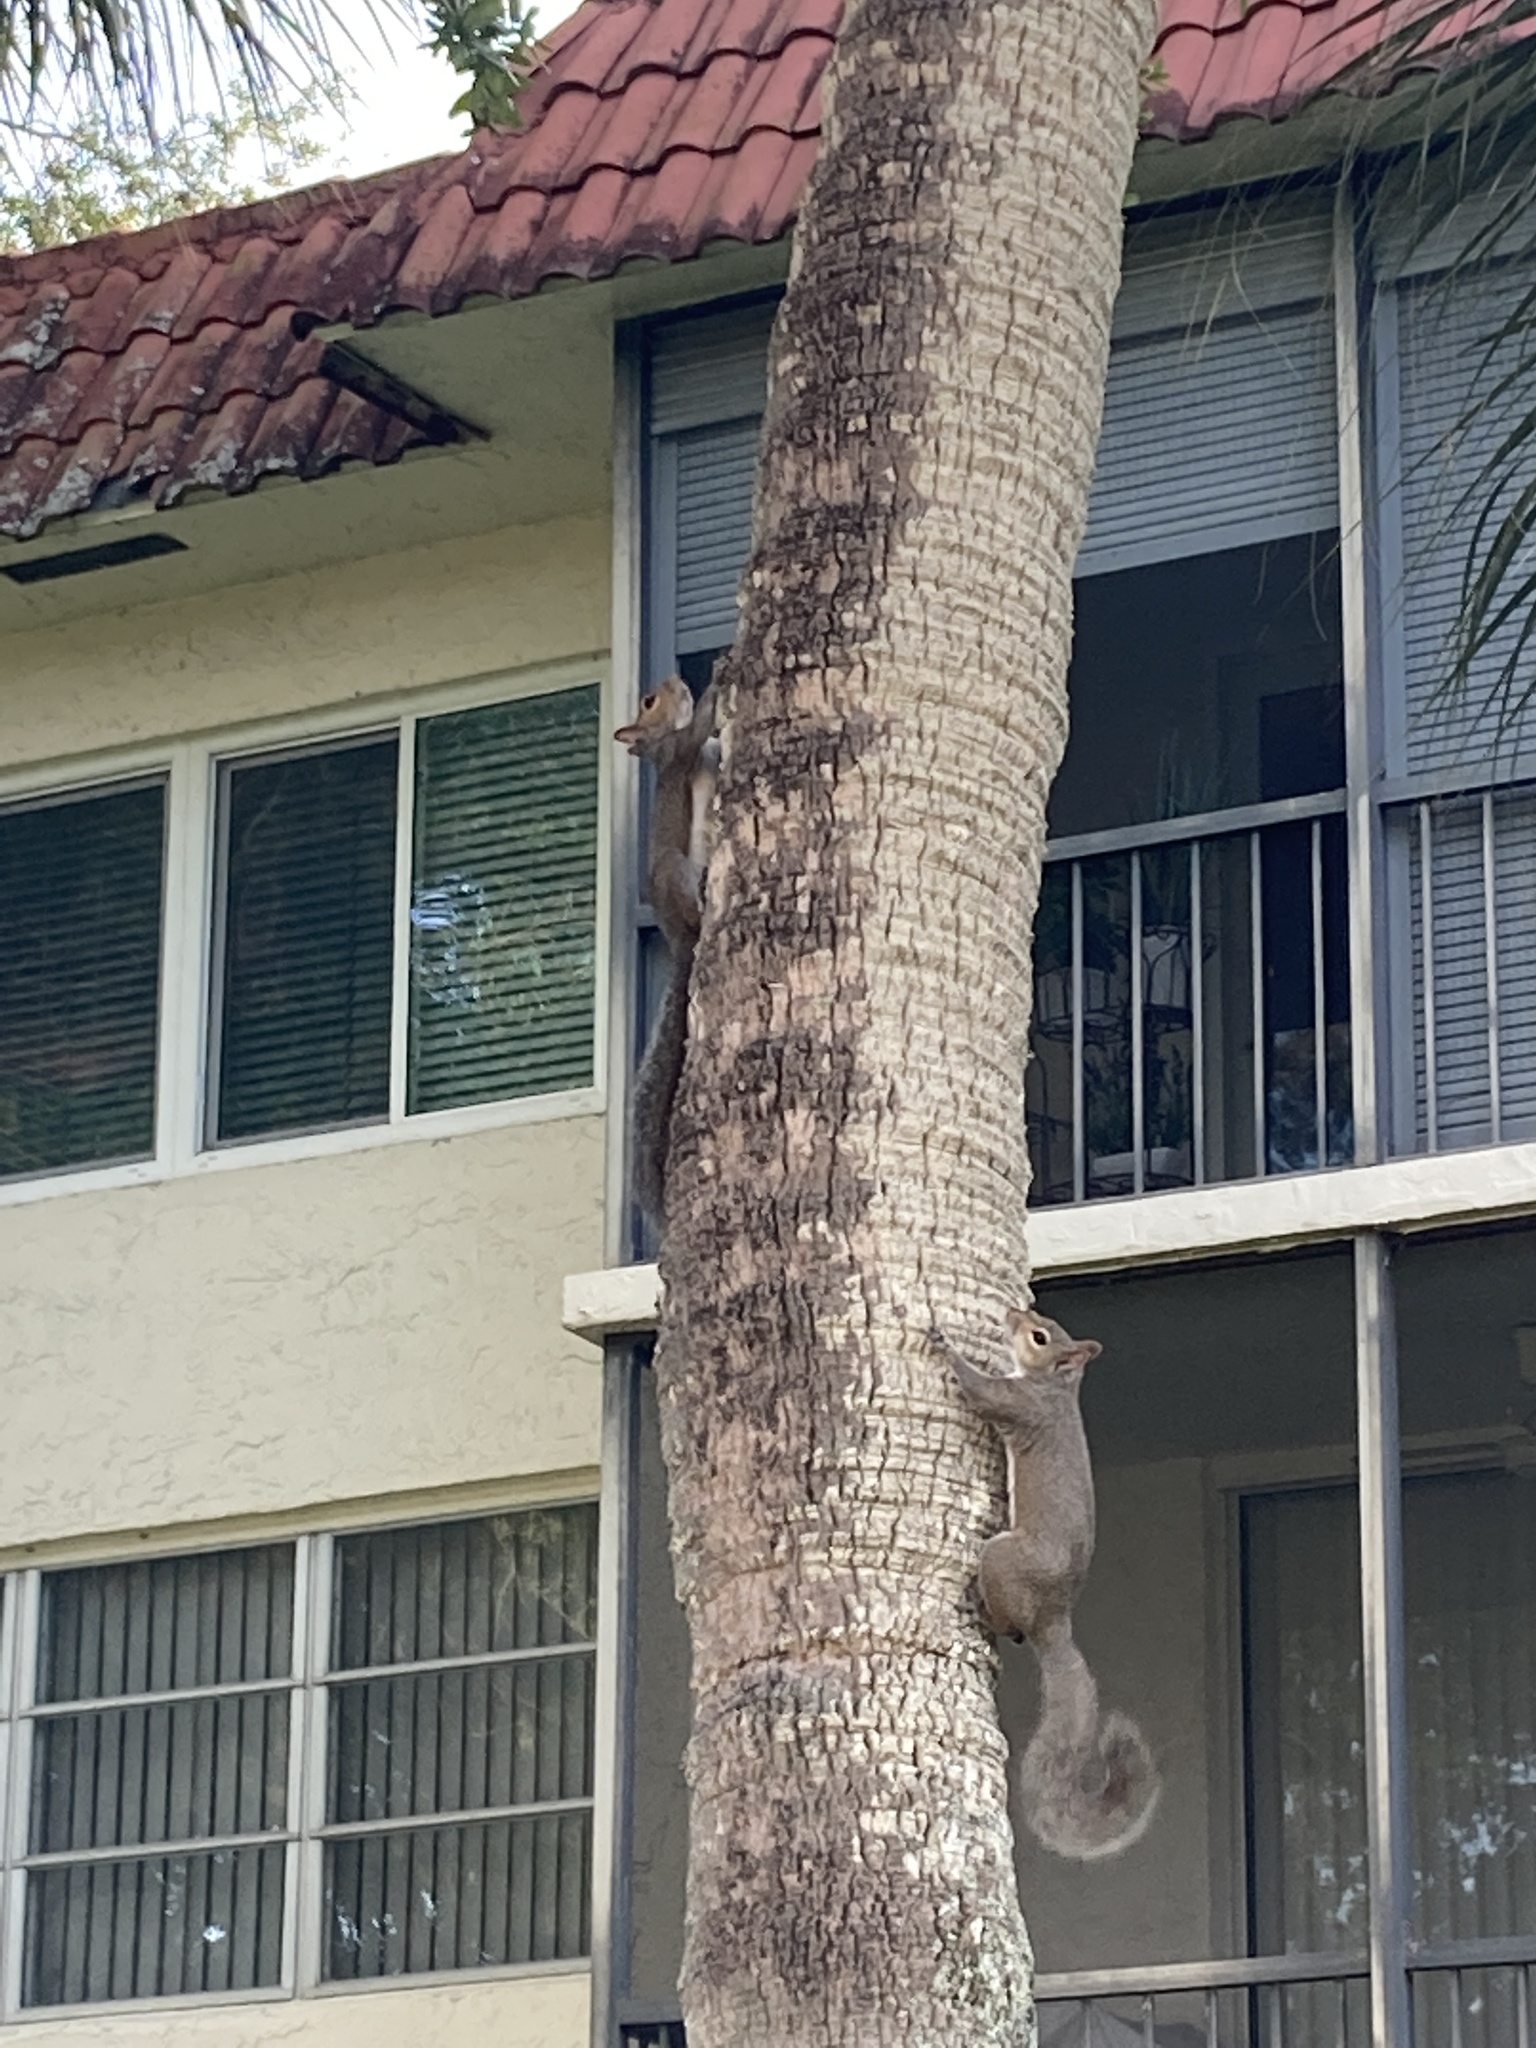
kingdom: Animalia
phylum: Chordata
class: Mammalia
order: Rodentia
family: Sciuridae
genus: Sciurus
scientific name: Sciurus carolinensis
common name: Eastern gray squirrel
